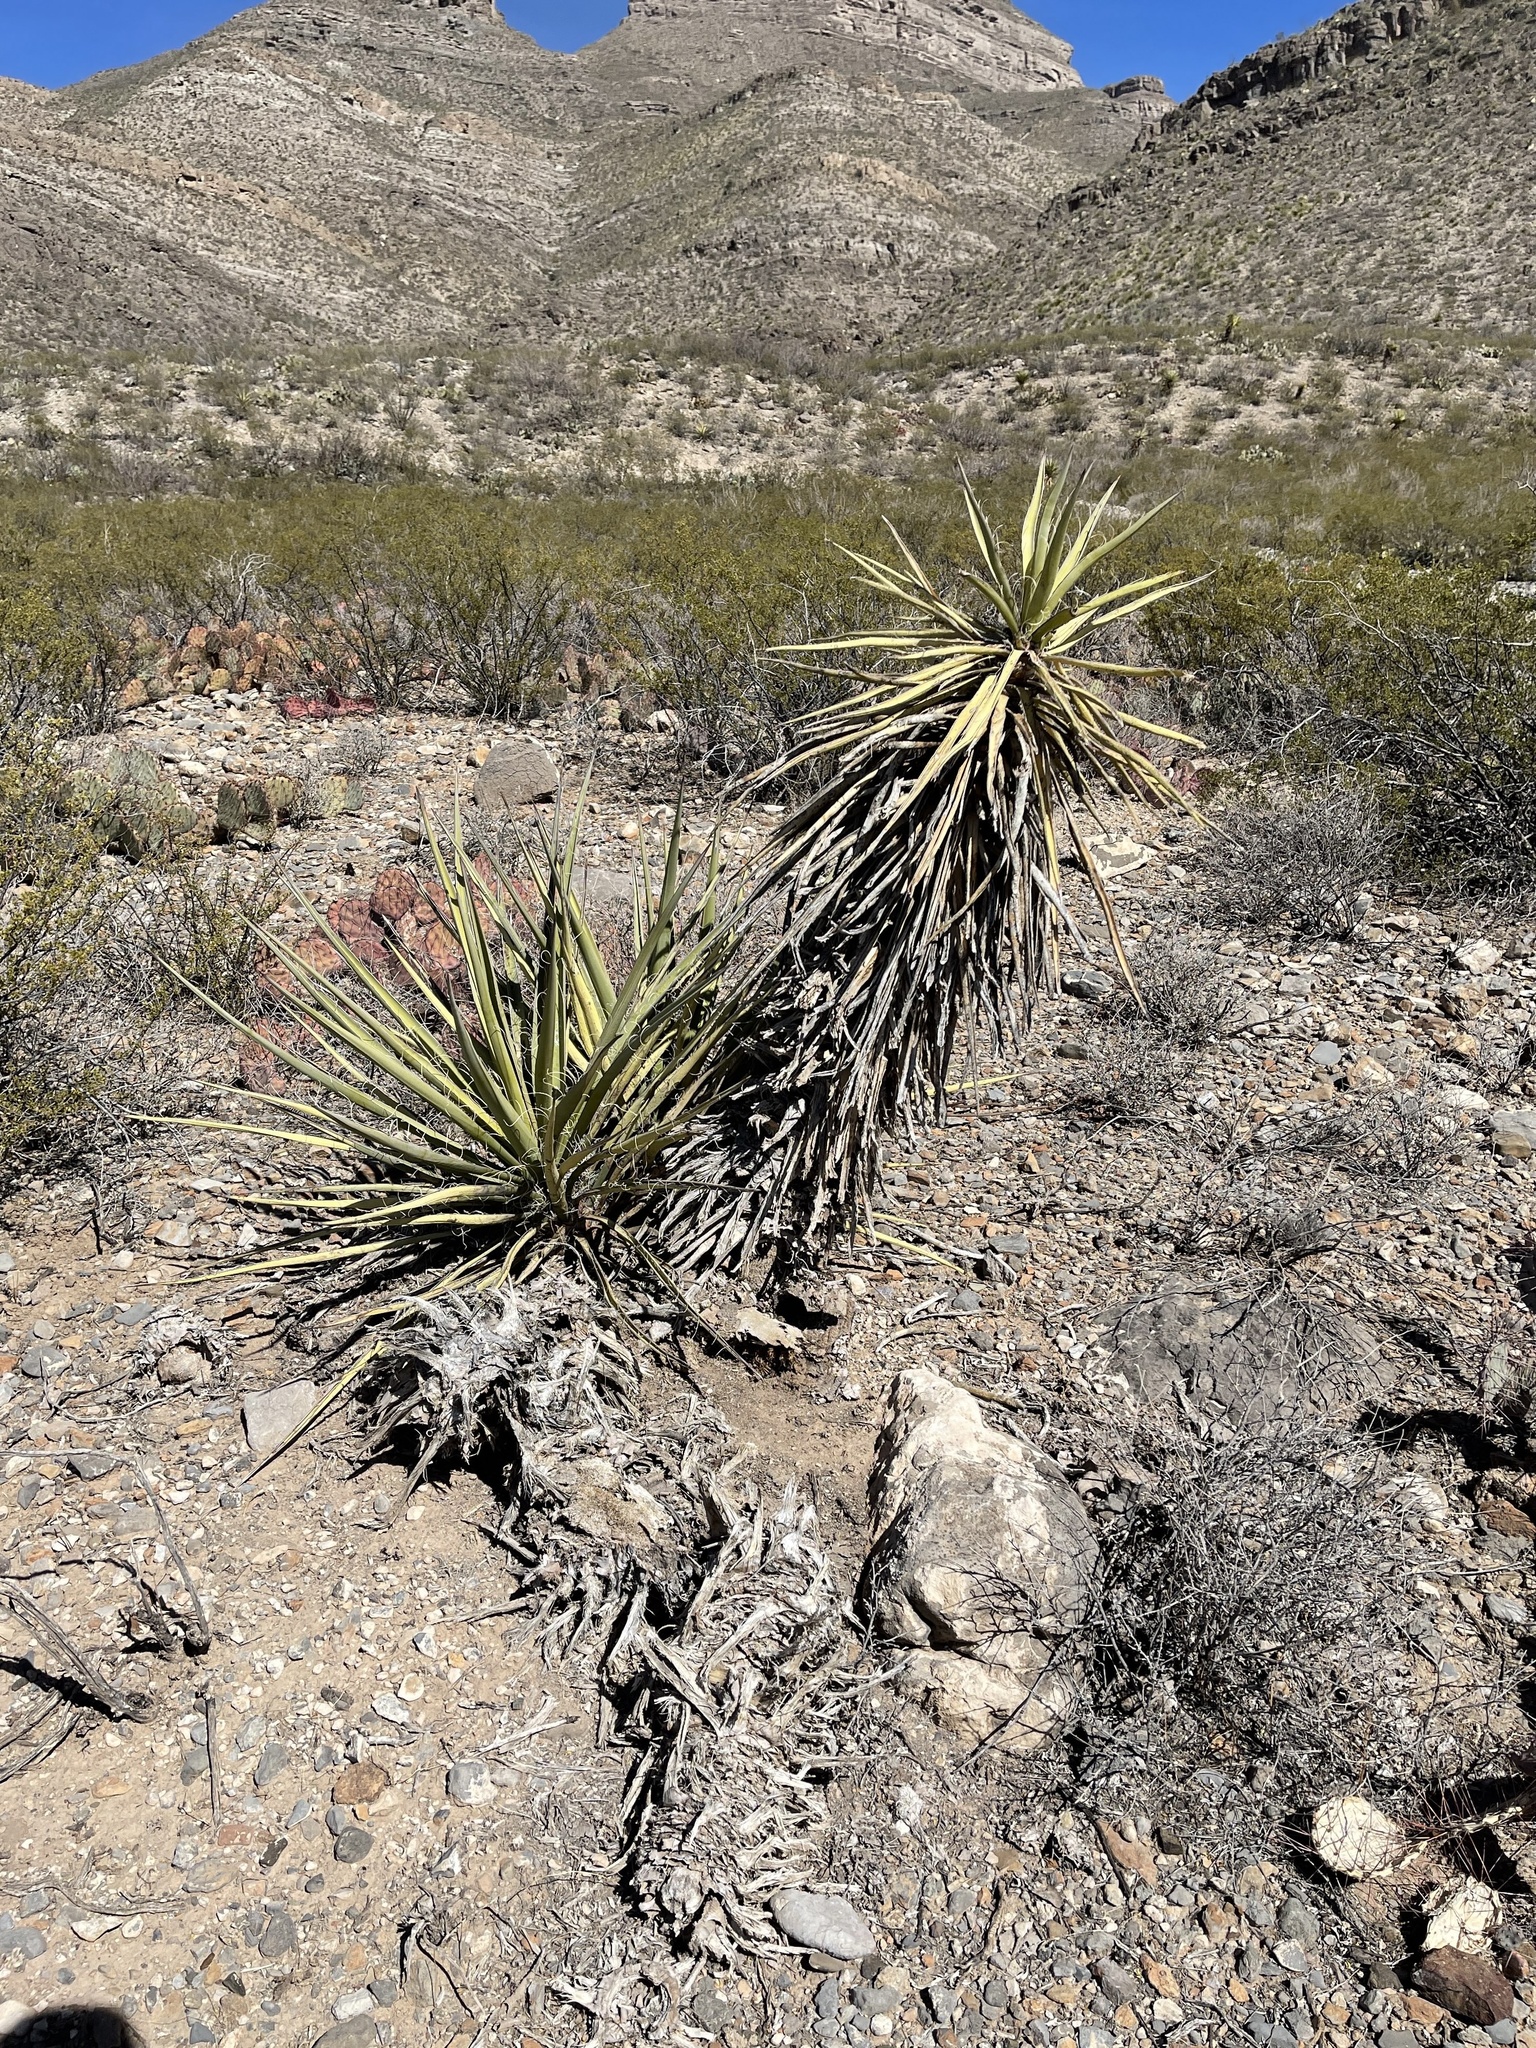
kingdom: Plantae
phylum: Tracheophyta
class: Liliopsida
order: Asparagales
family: Asparagaceae
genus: Yucca
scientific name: Yucca treculiana
